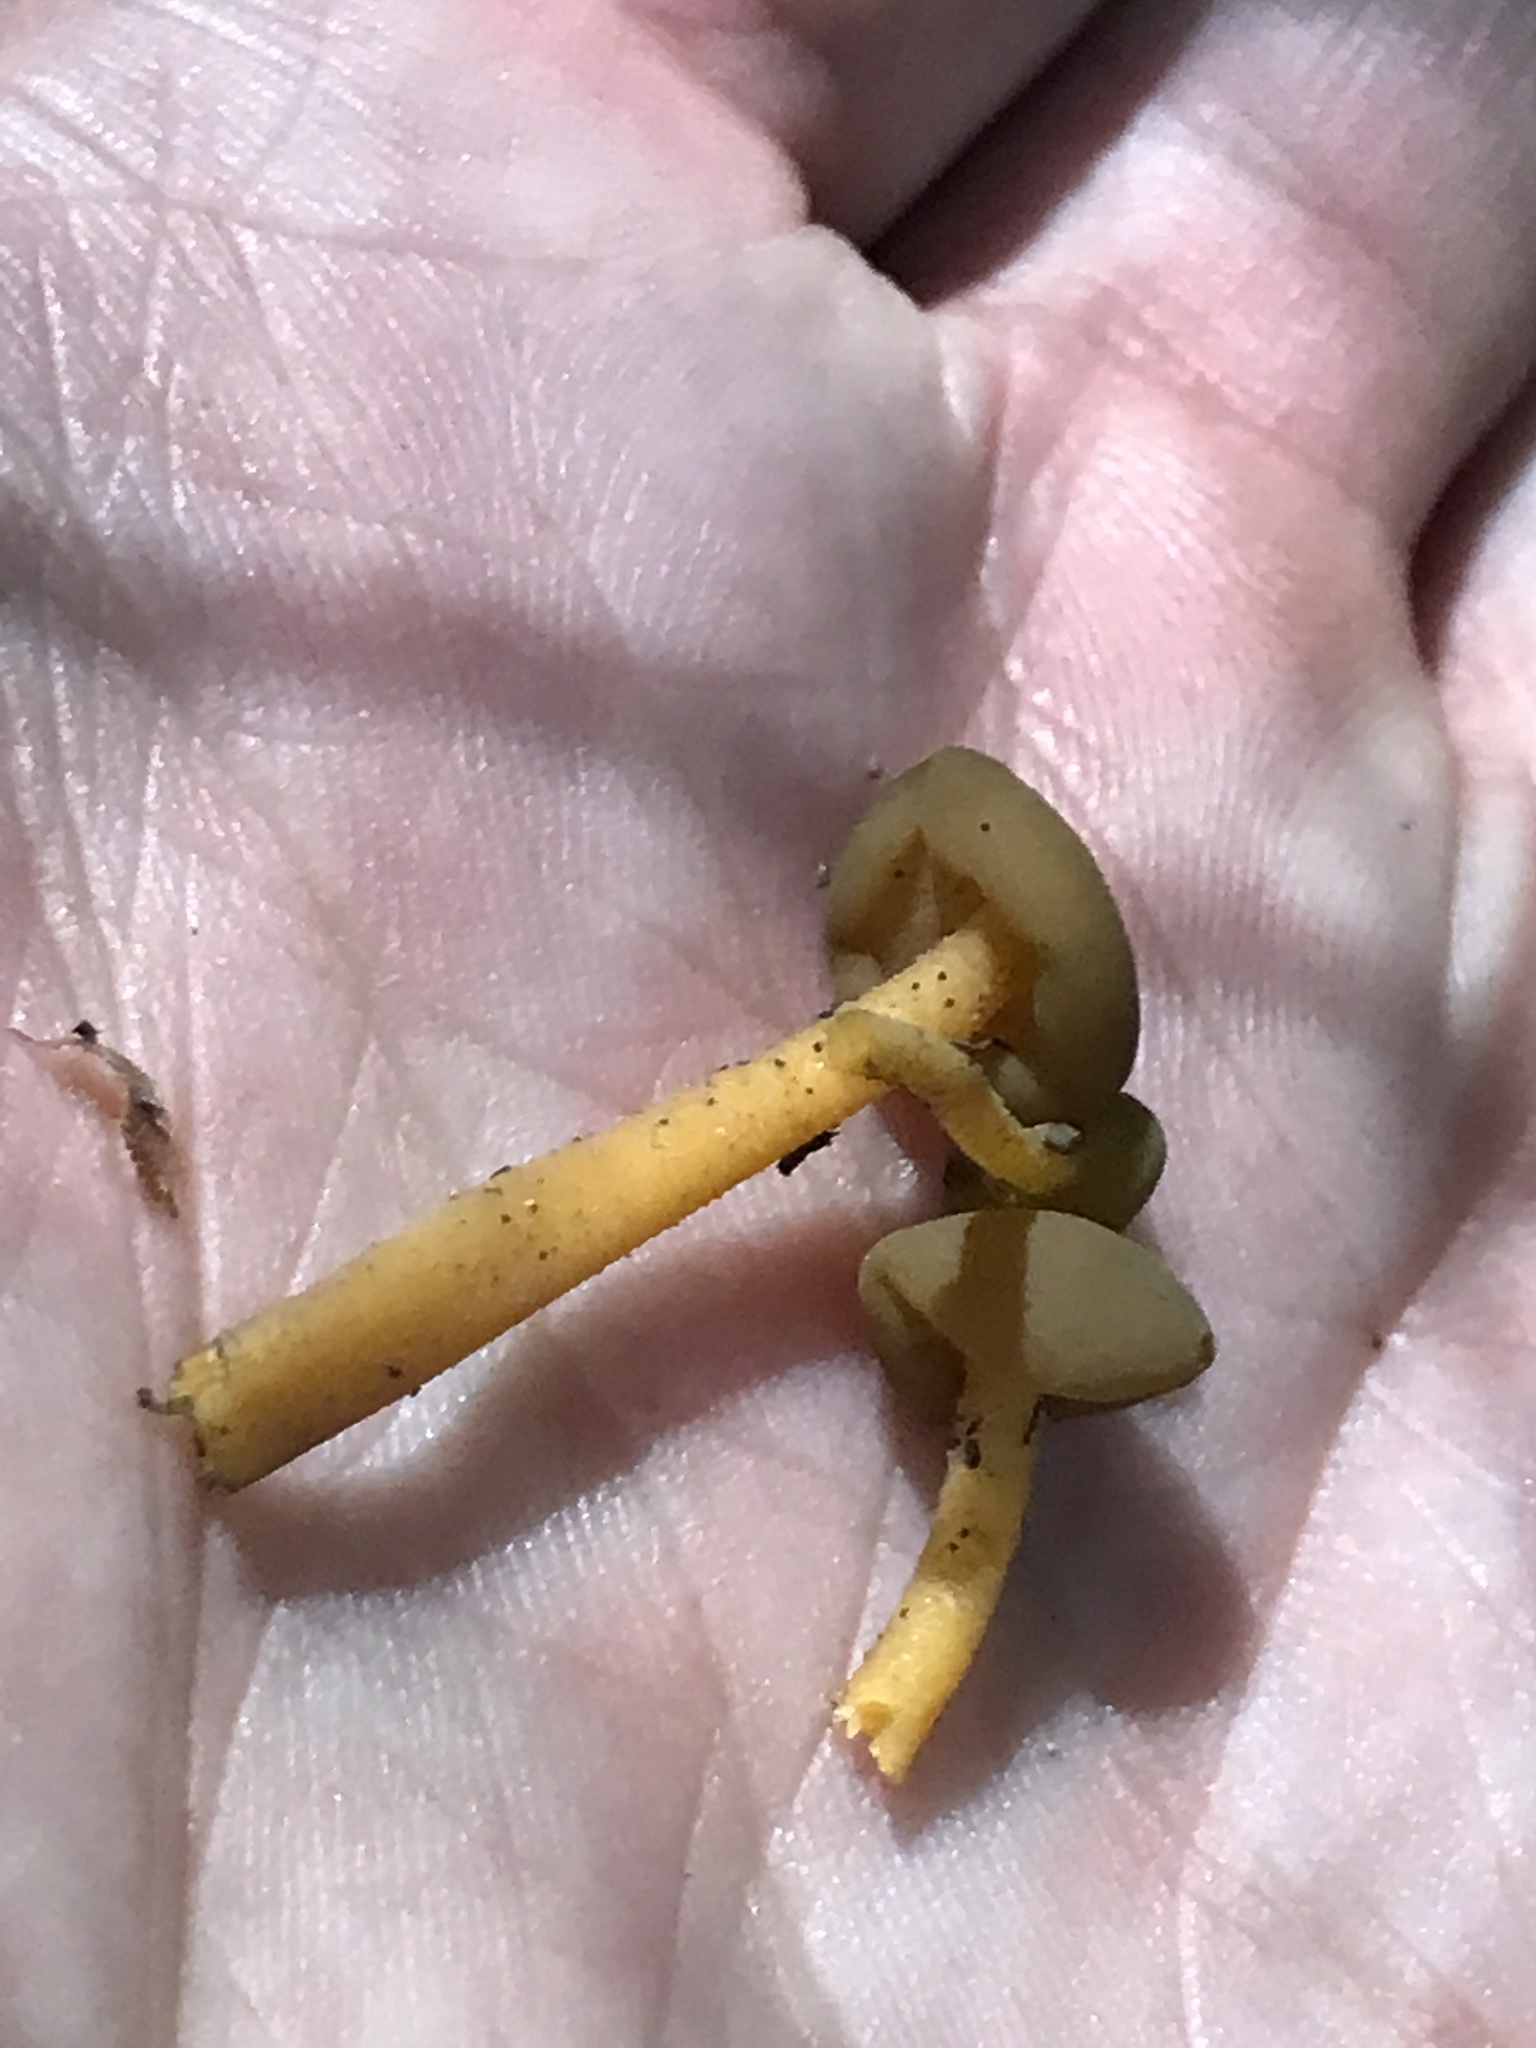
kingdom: Fungi
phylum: Ascomycota
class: Leotiomycetes
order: Leotiales
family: Leotiaceae
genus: Leotia
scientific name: Leotia lubrica
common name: Jellybaby
